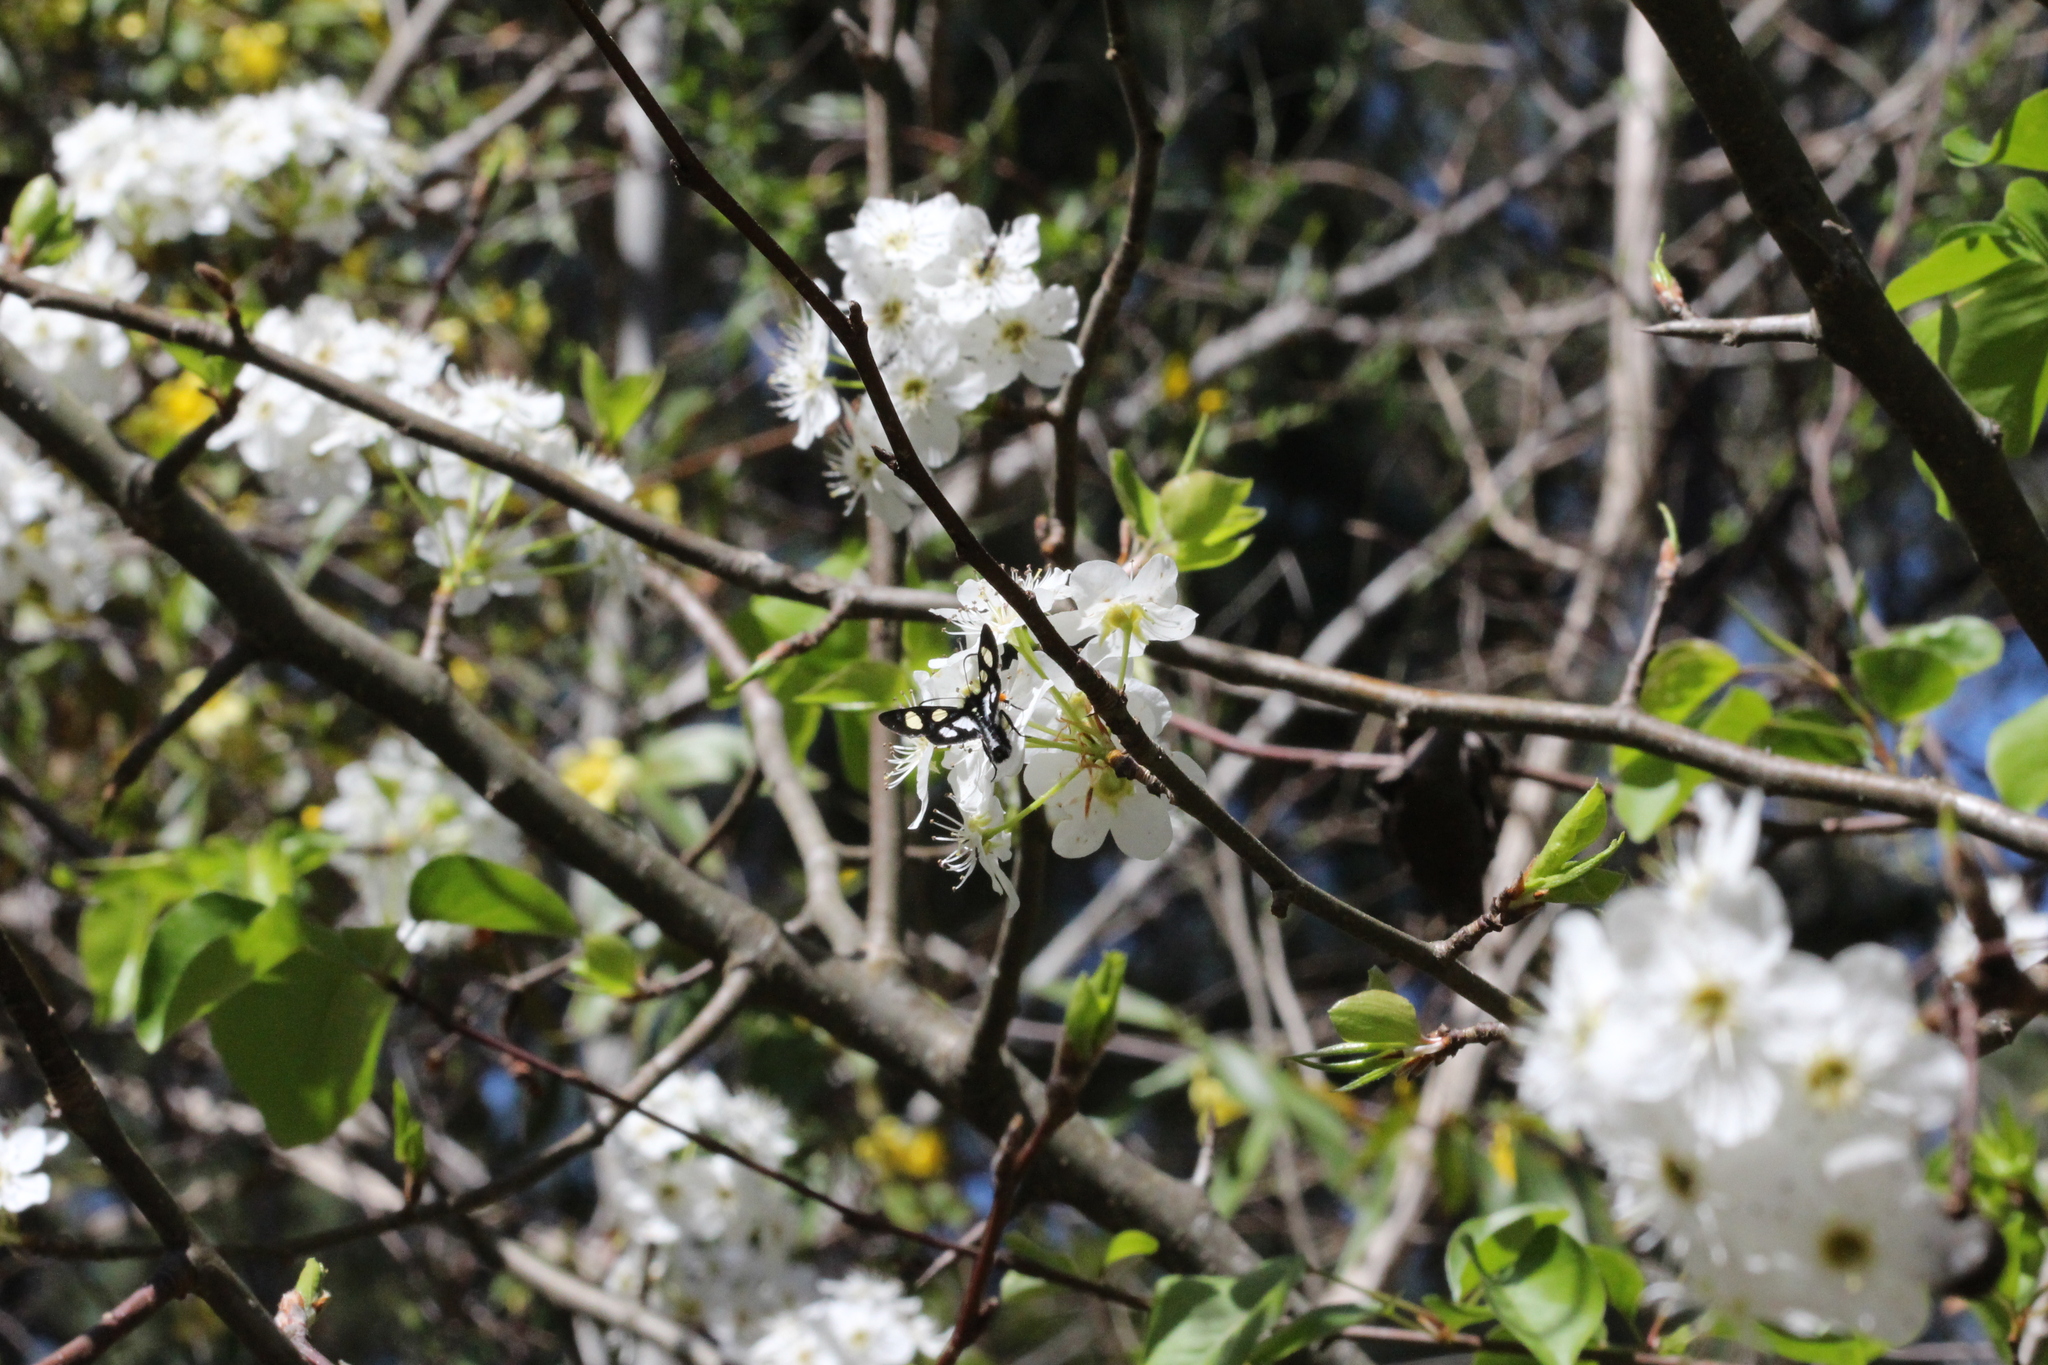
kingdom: Animalia
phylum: Arthropoda
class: Insecta
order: Lepidoptera
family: Noctuidae
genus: Alypia
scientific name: Alypia octomaculata
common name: Eight-spotted forester
